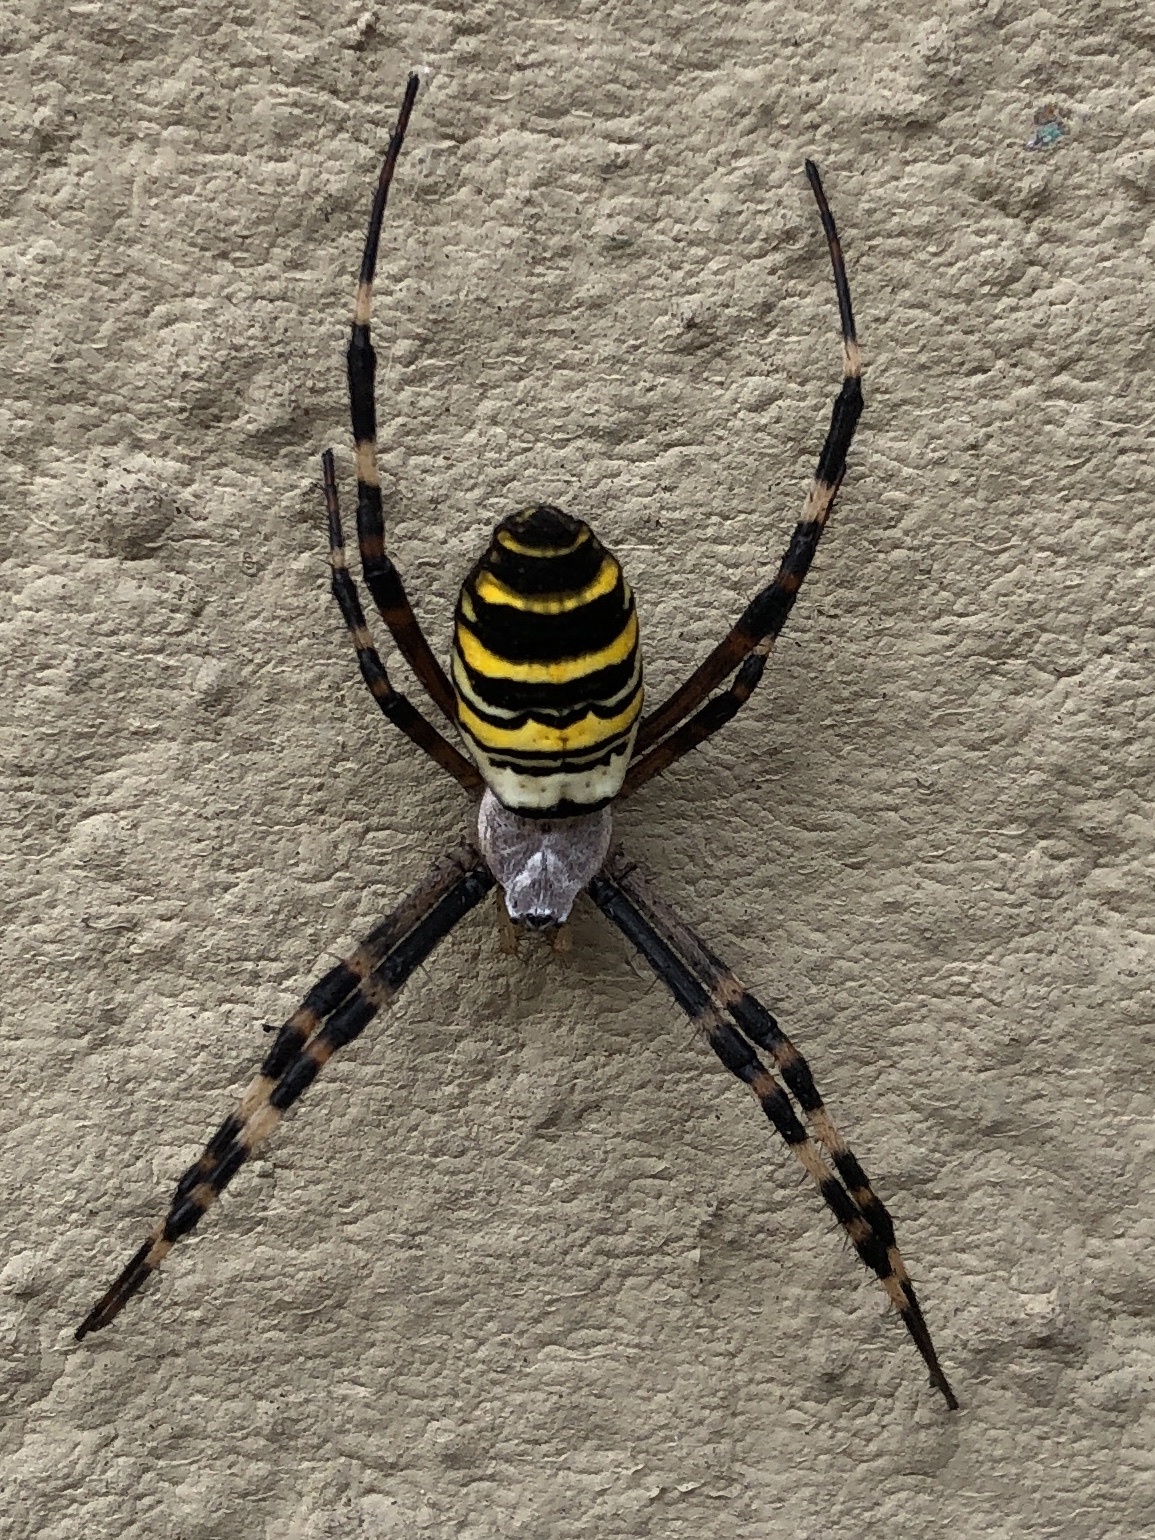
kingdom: Animalia
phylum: Arthropoda
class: Arachnida
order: Araneae
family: Araneidae
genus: Argiope
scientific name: Argiope bruennichi
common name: Wasp spider
